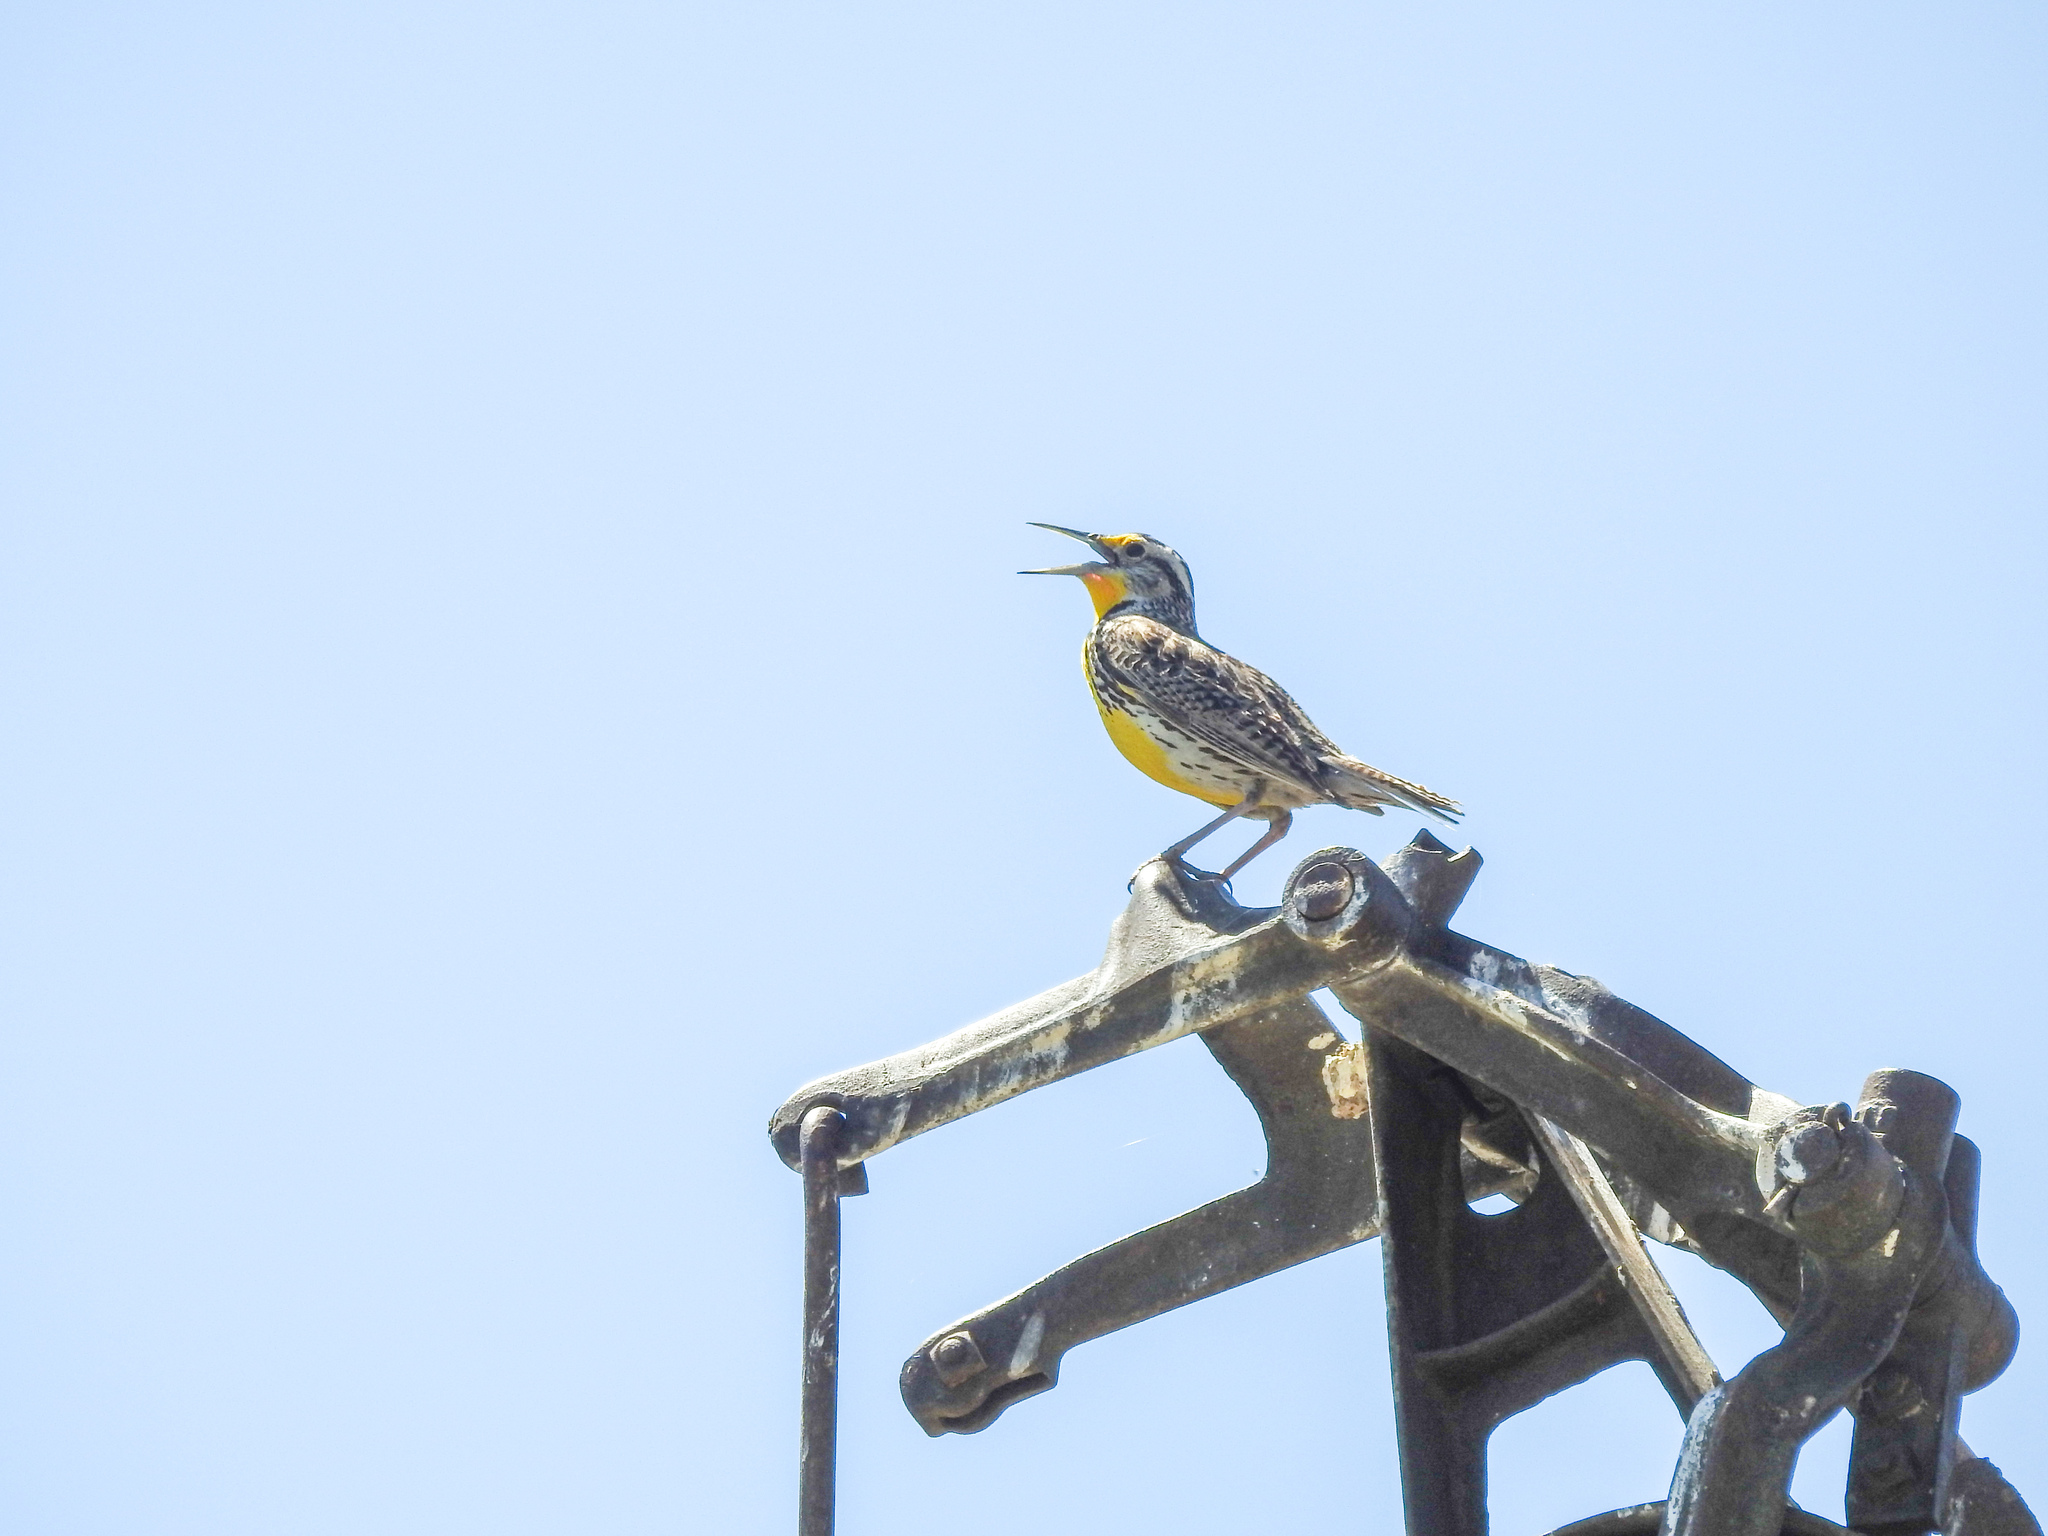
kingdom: Animalia
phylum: Chordata
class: Aves
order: Passeriformes
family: Icteridae
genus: Sturnella
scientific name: Sturnella neglecta
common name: Western meadowlark
